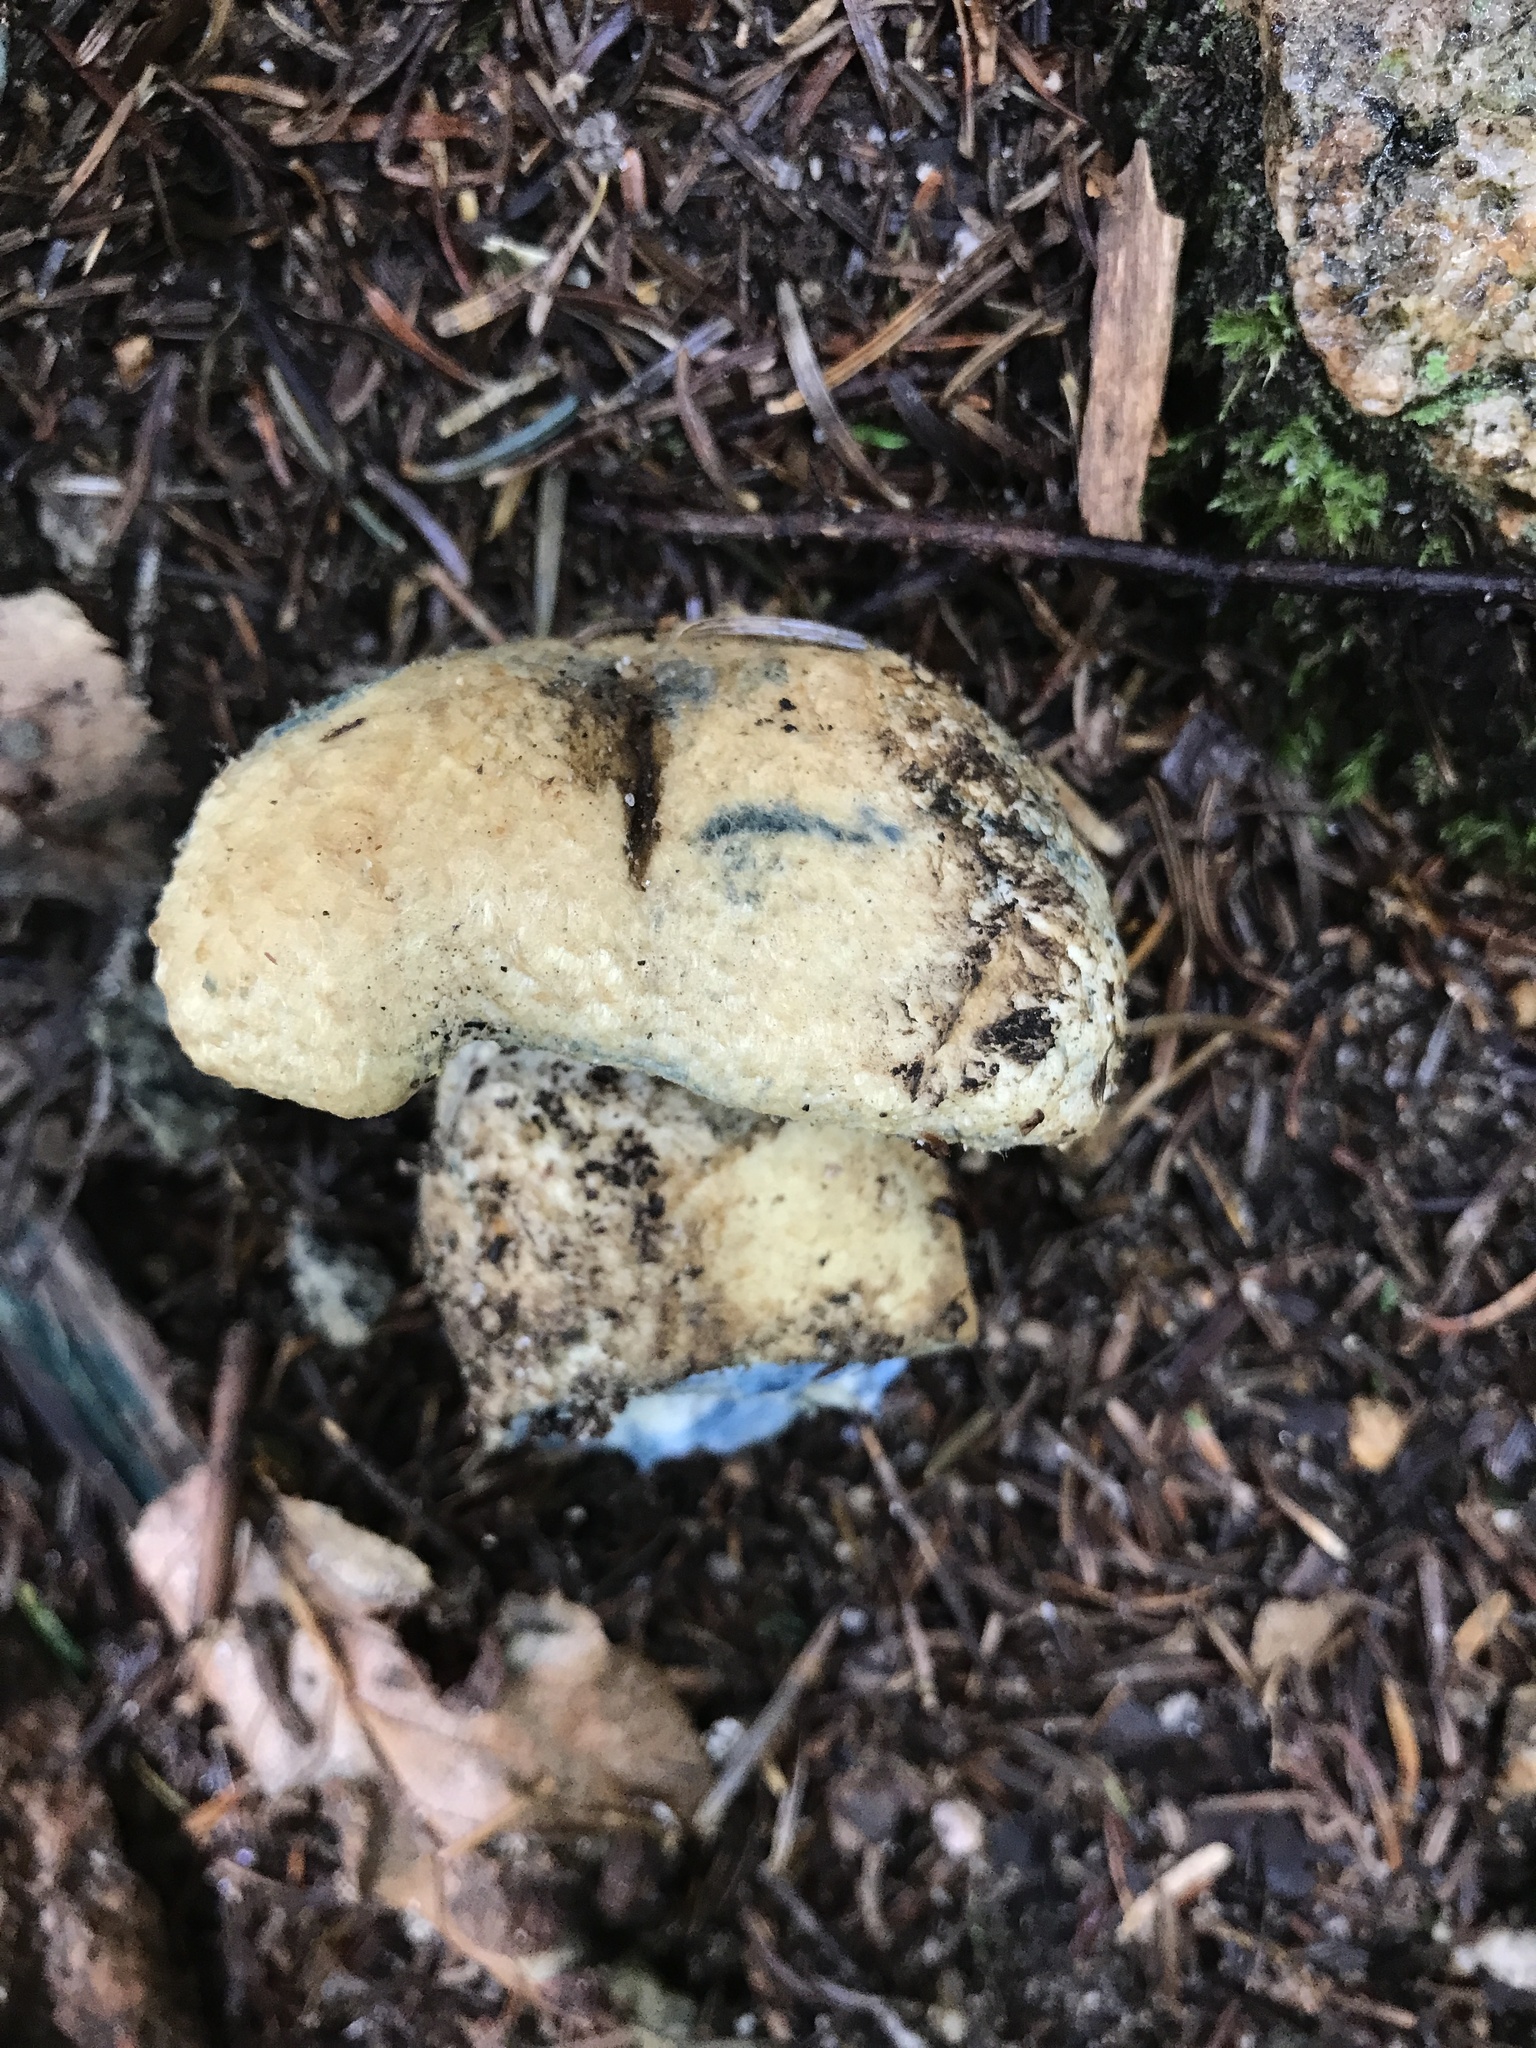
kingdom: Fungi
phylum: Basidiomycota
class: Agaricomycetes
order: Boletales
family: Gyroporaceae
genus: Gyroporus
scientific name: Gyroporus cyanescens
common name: Cornflower bolete
